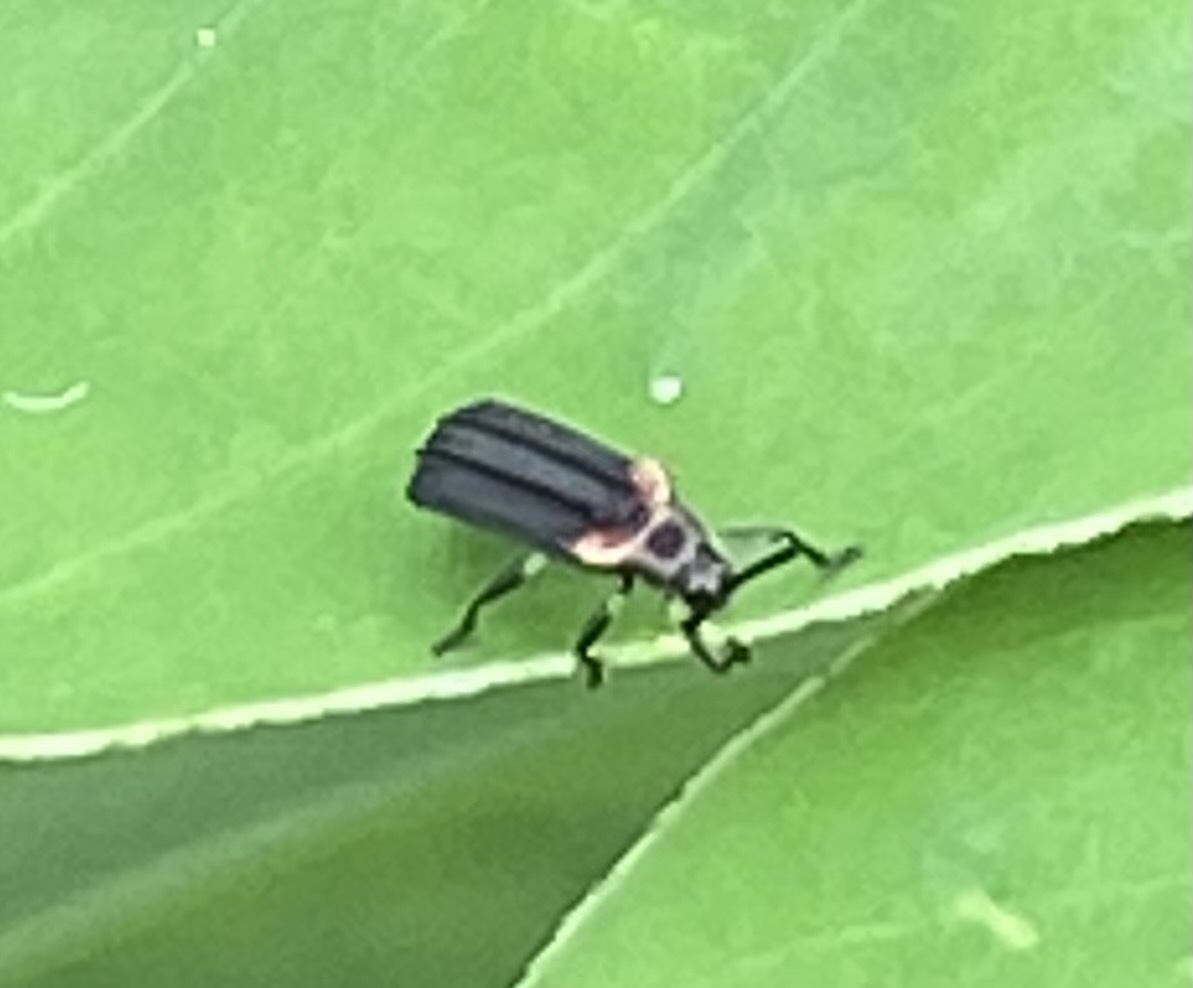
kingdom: Animalia
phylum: Arthropoda
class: Insecta
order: Coleoptera
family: Chrysomelidae
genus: Heterispa
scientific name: Heterispa vinula
